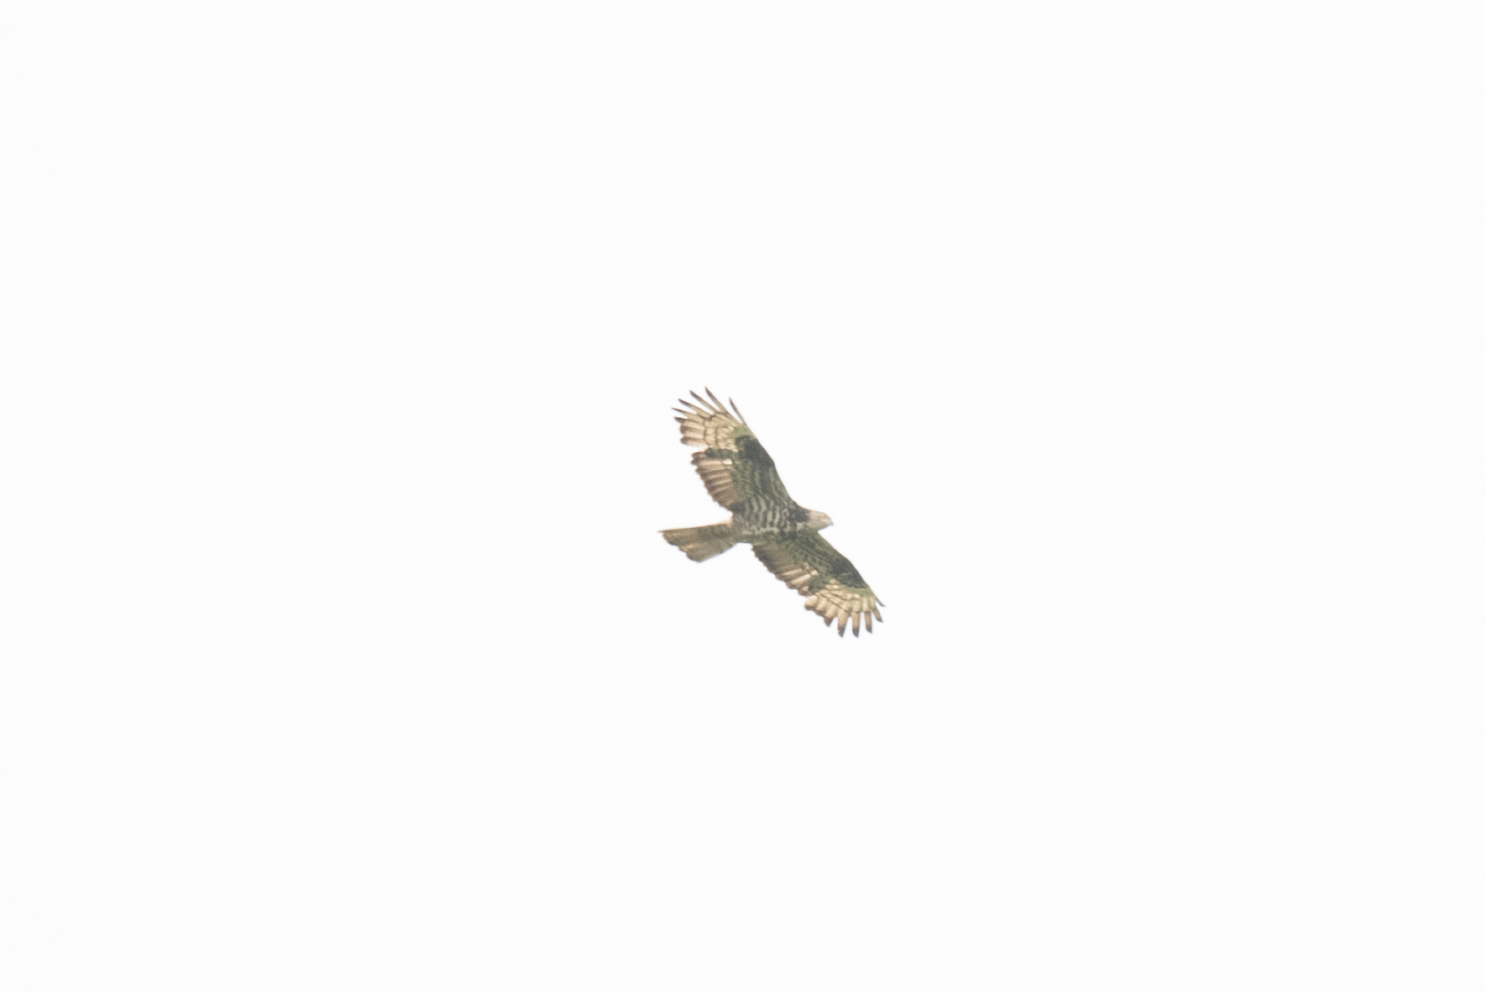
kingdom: Animalia
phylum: Chordata
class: Aves
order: Accipitriformes
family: Accipitridae
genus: Pernis
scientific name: Pernis apivorus
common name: European honey buzzard
